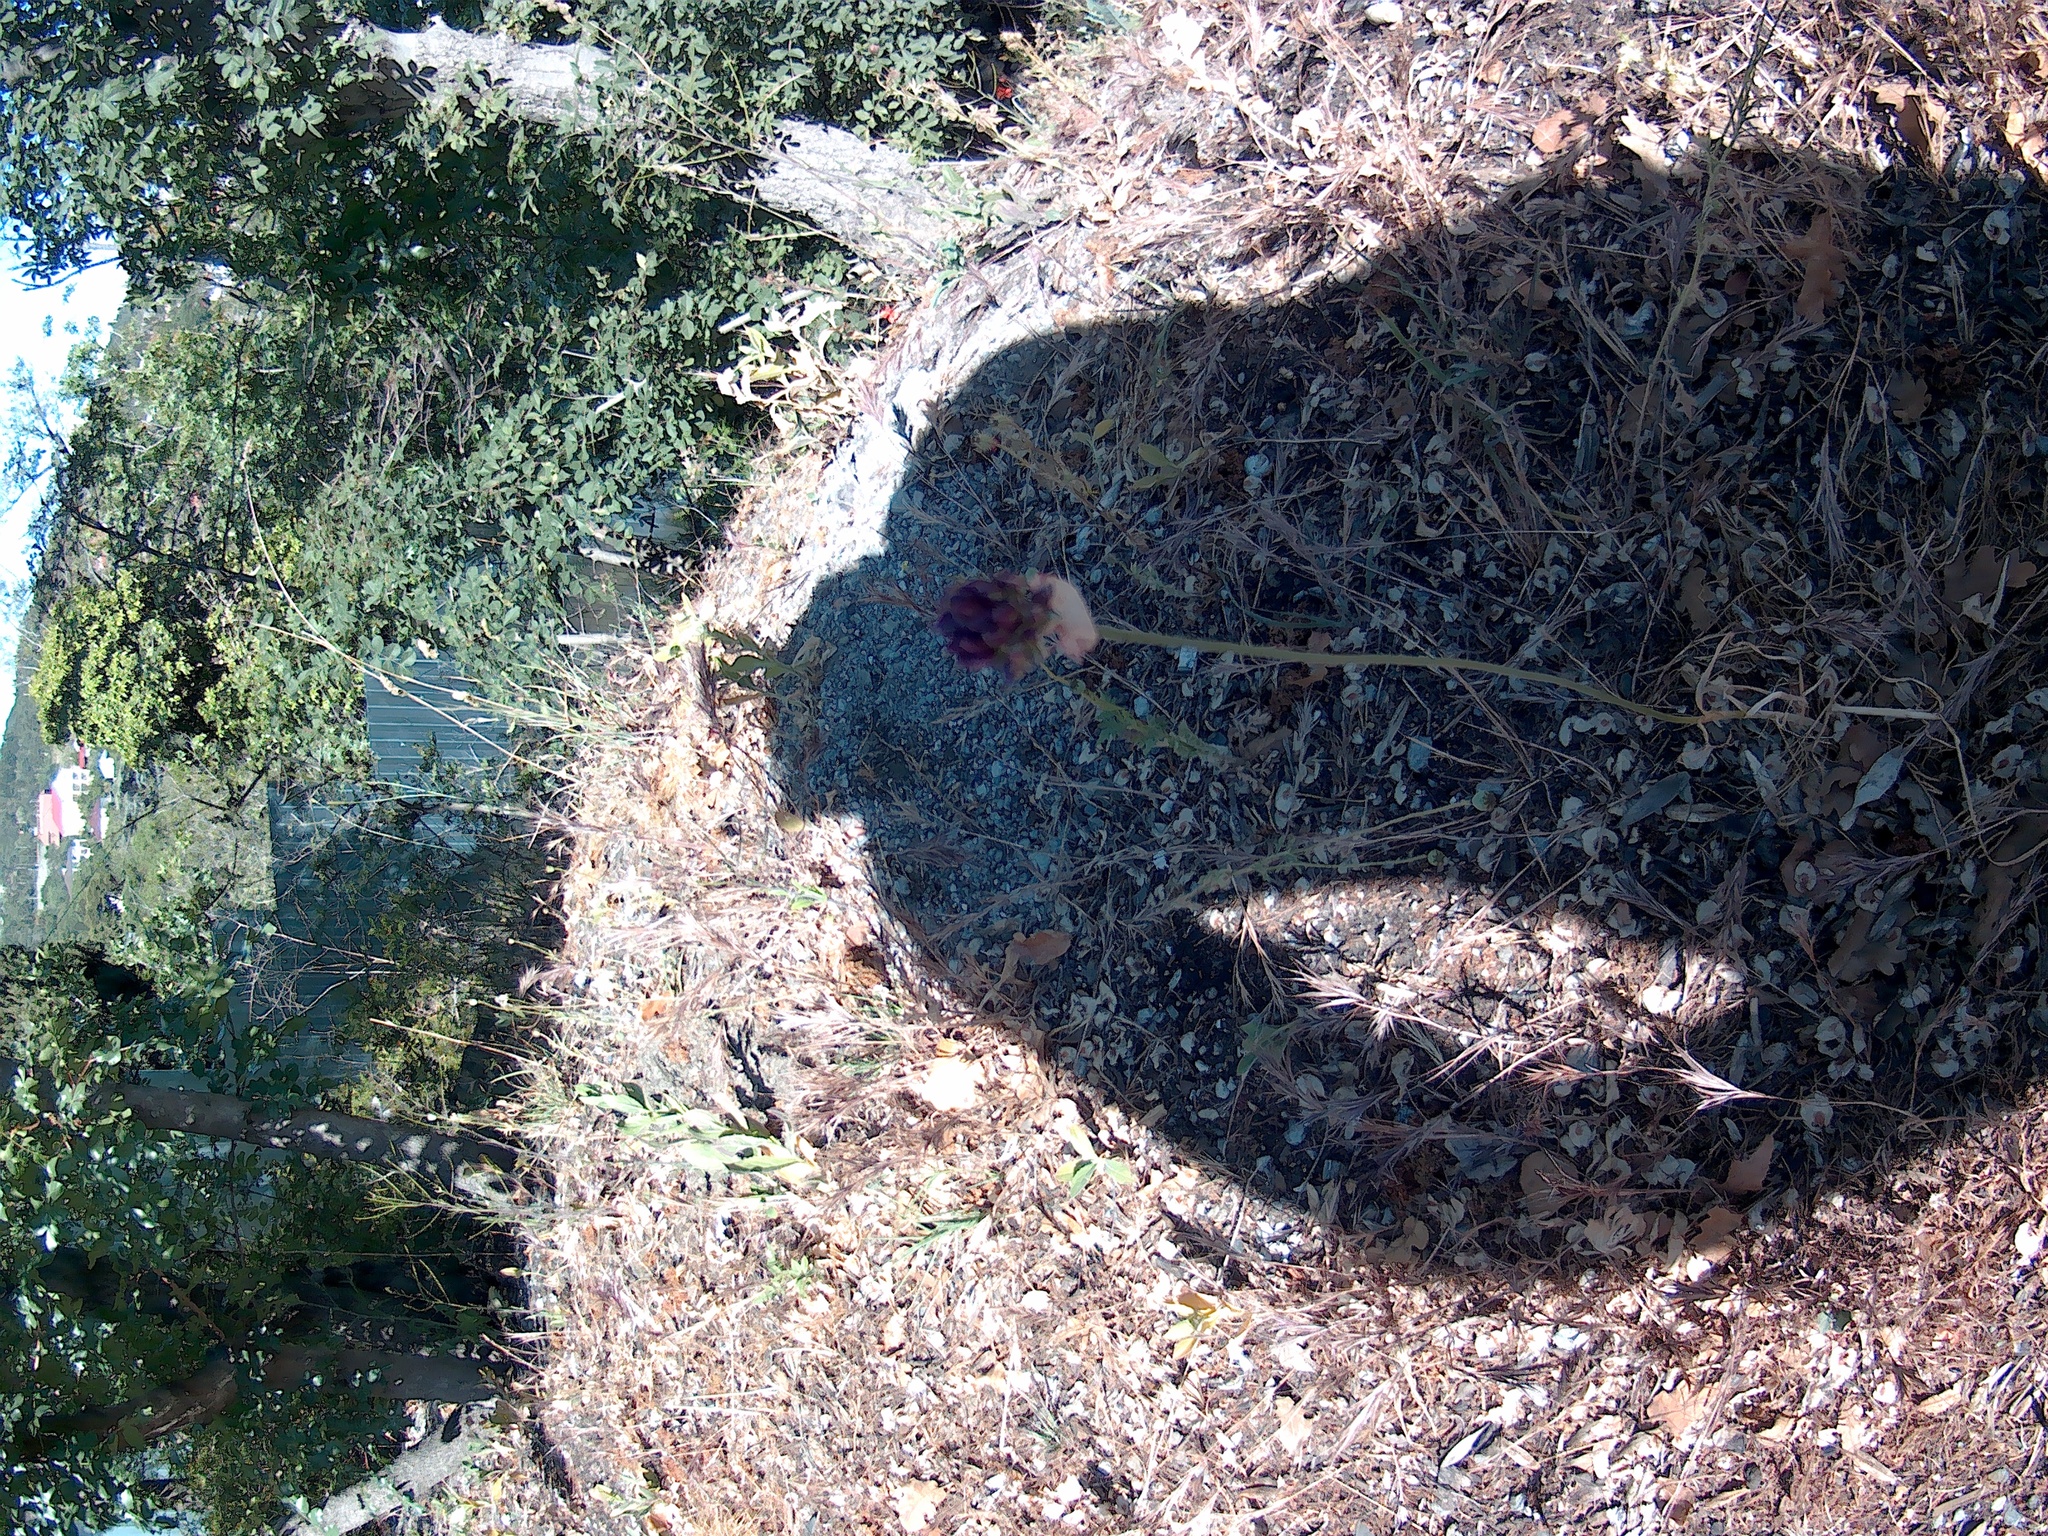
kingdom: Plantae
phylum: Tracheophyta
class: Liliopsida
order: Asparagales
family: Amaryllidaceae
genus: Allium
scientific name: Allium
